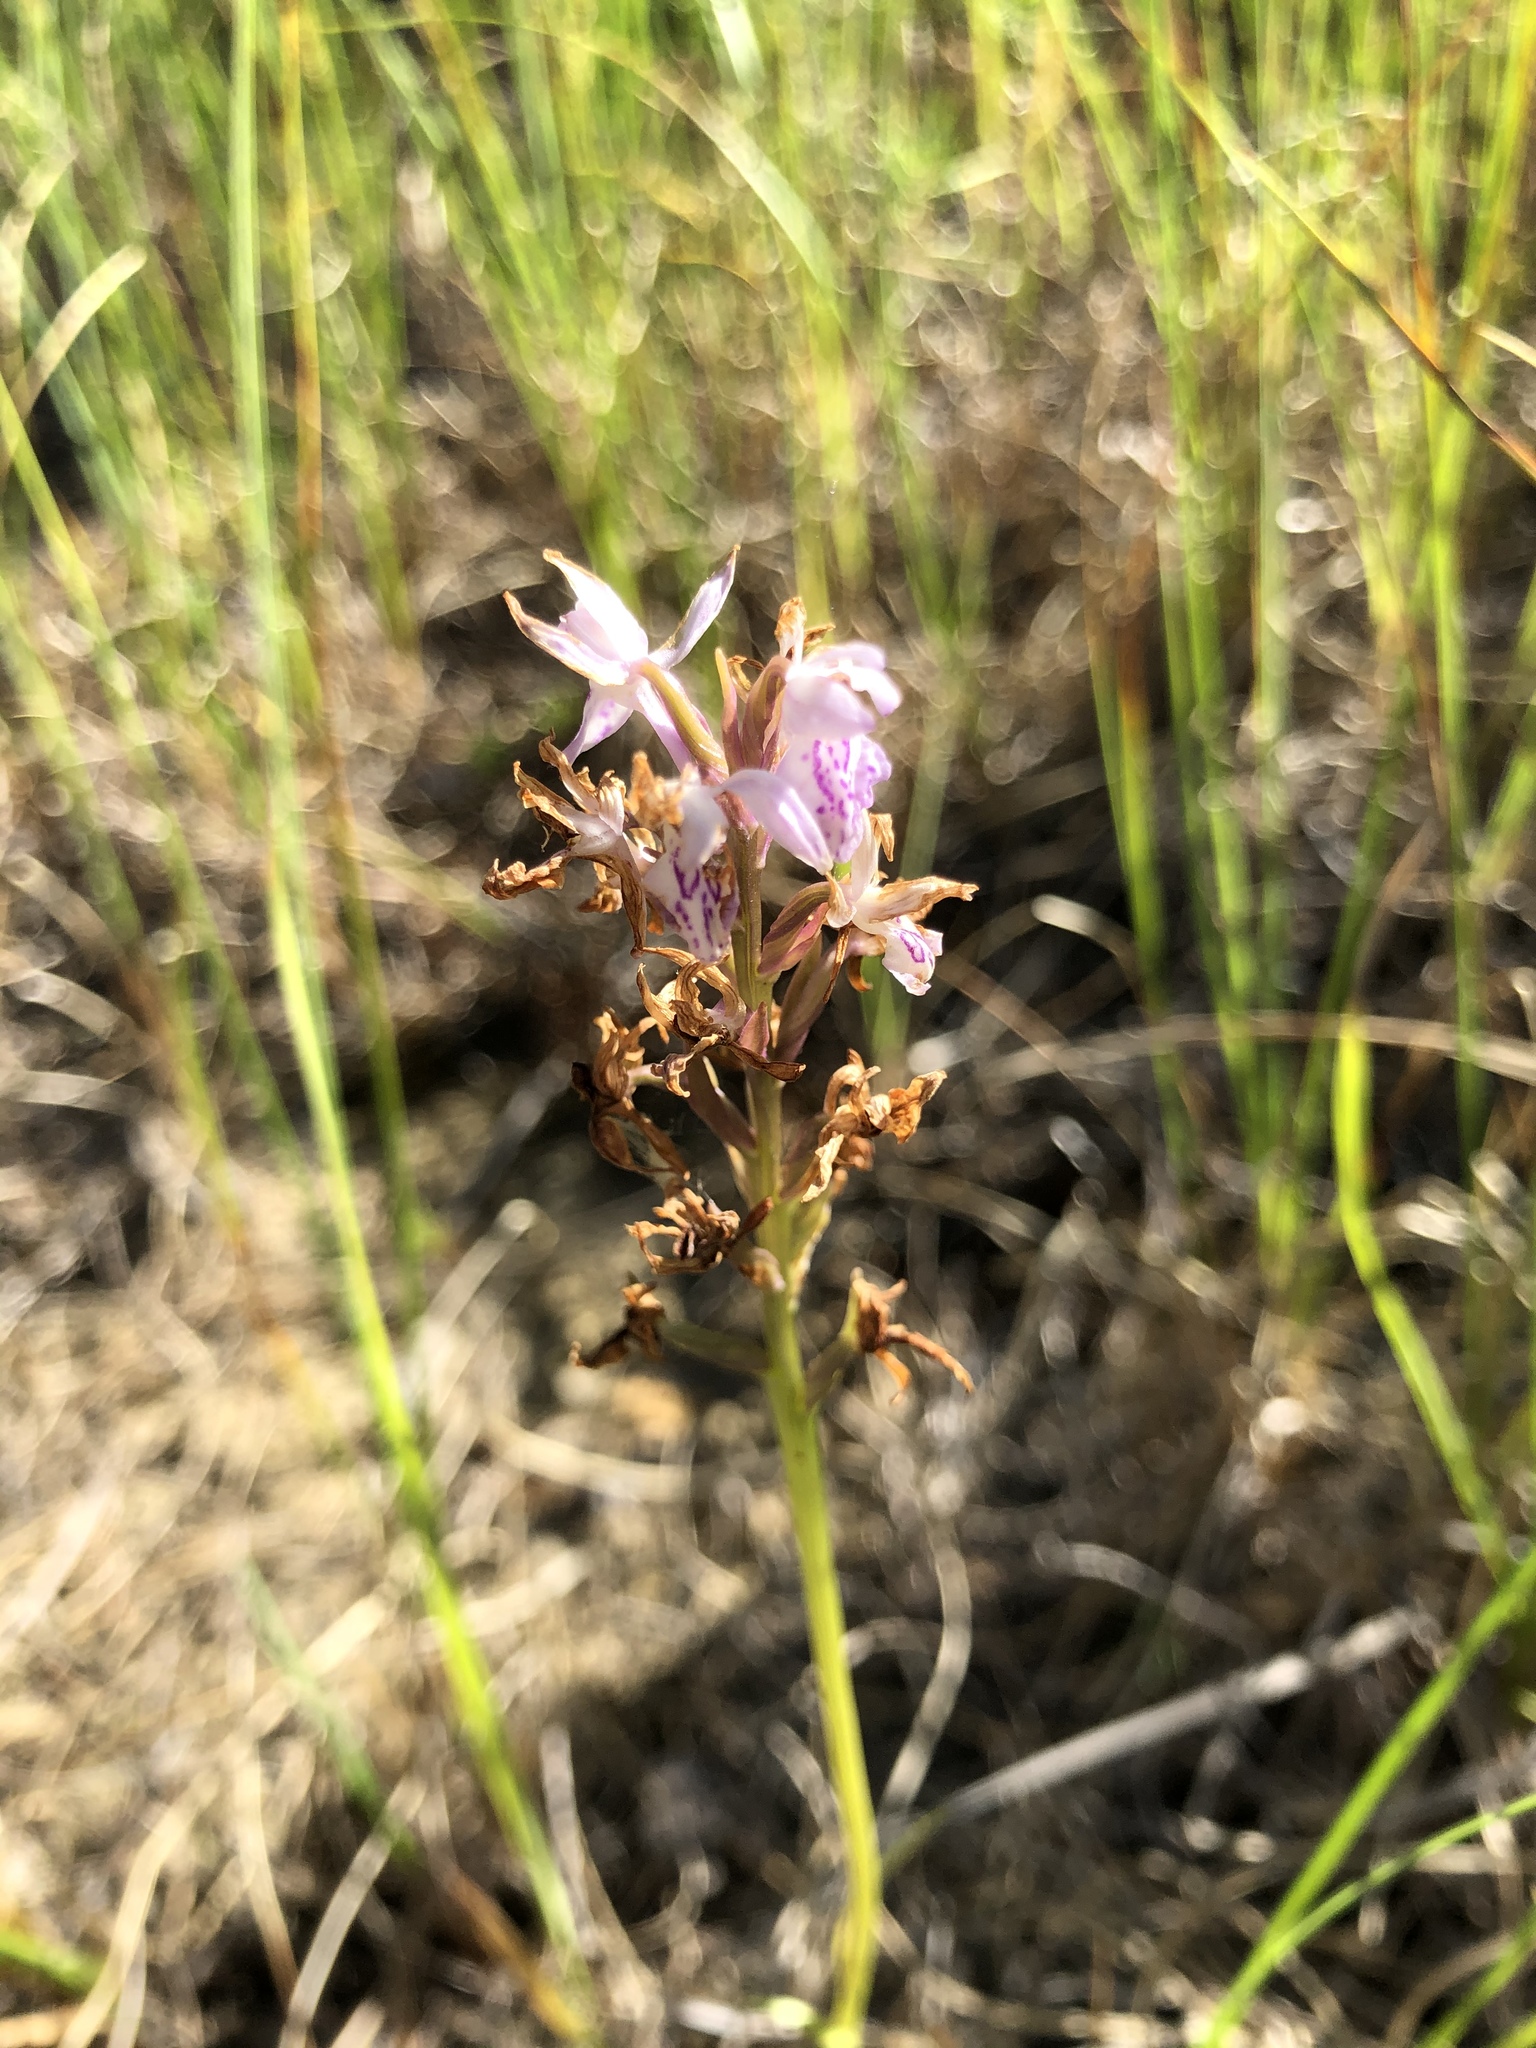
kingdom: Plantae
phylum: Tracheophyta
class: Liliopsida
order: Asparagales
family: Orchidaceae
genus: Dactylorhiza
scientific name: Dactylorhiza maculata
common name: Heath spotted-orchid
